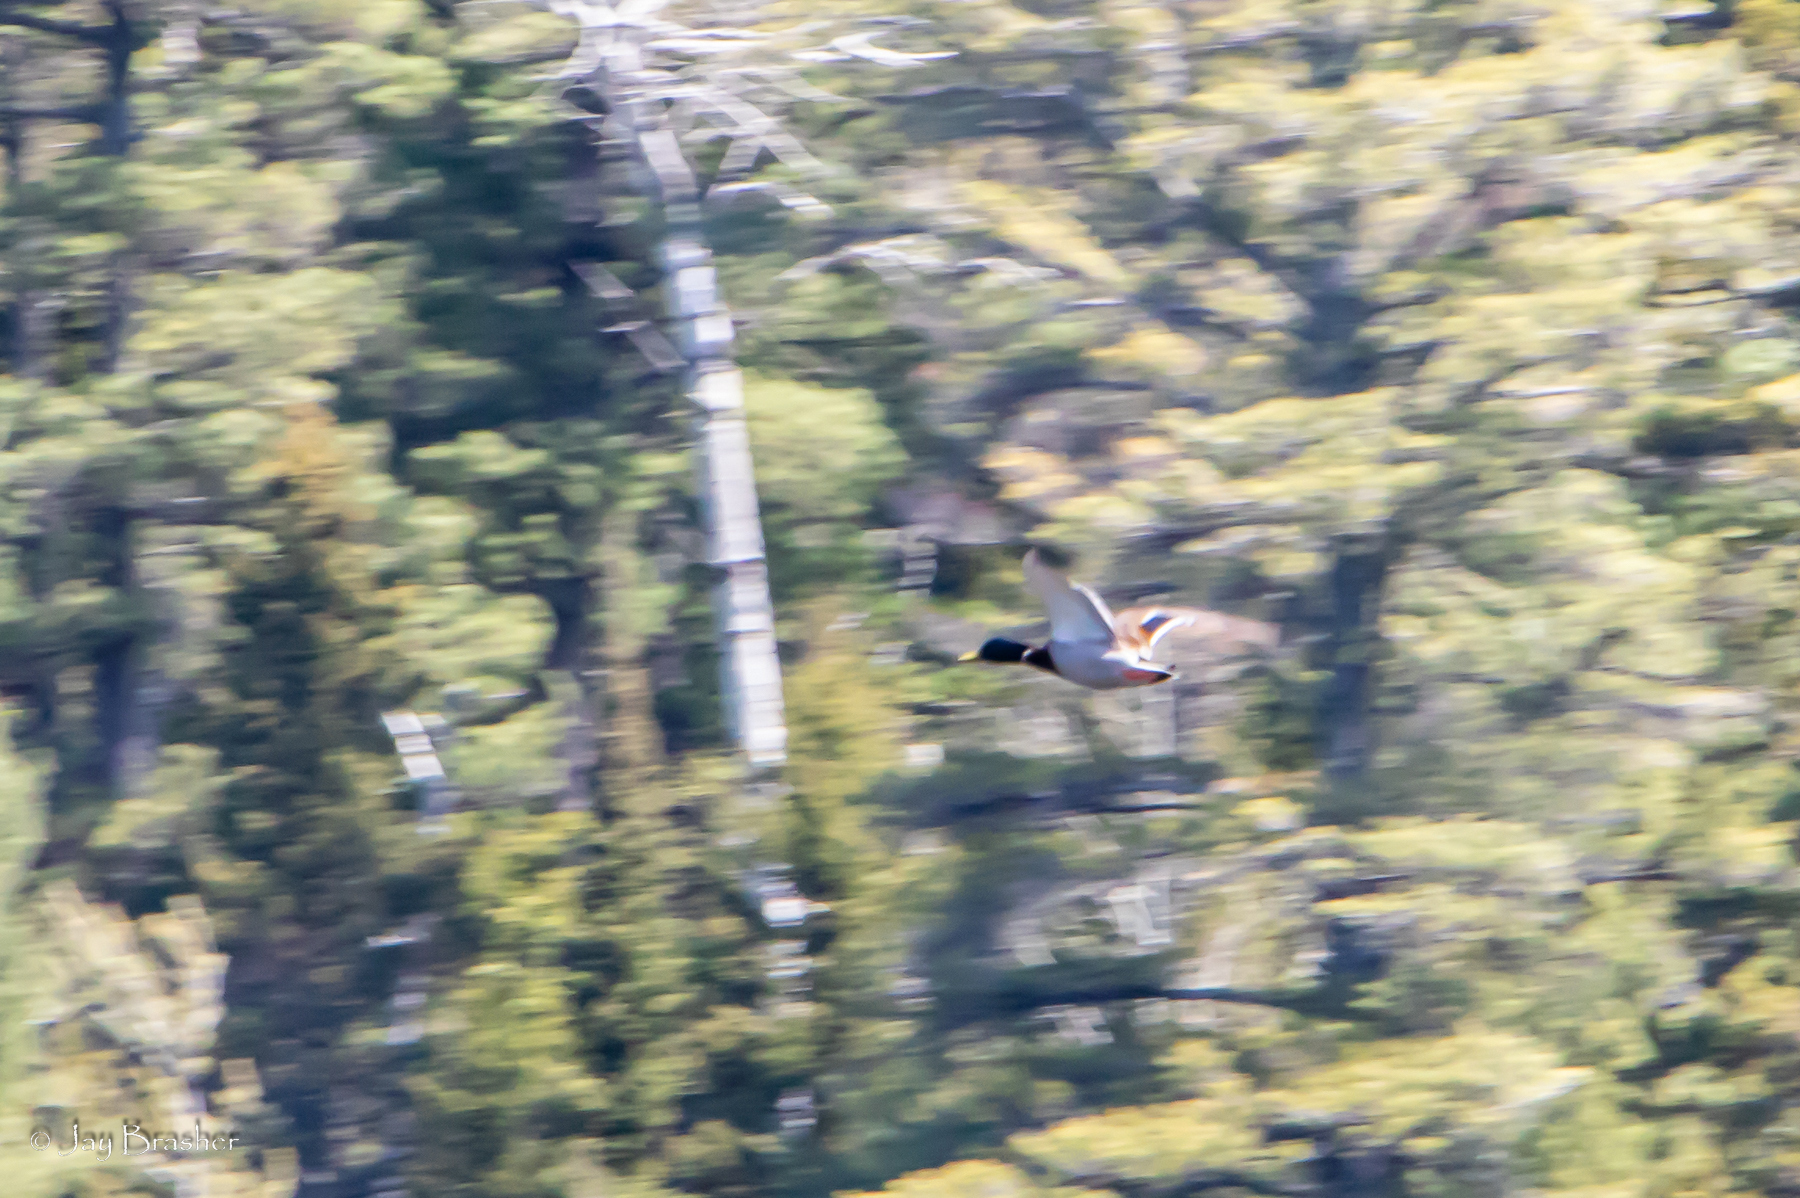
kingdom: Animalia
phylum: Chordata
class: Aves
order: Anseriformes
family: Anatidae
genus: Anas
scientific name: Anas platyrhynchos
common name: Mallard
